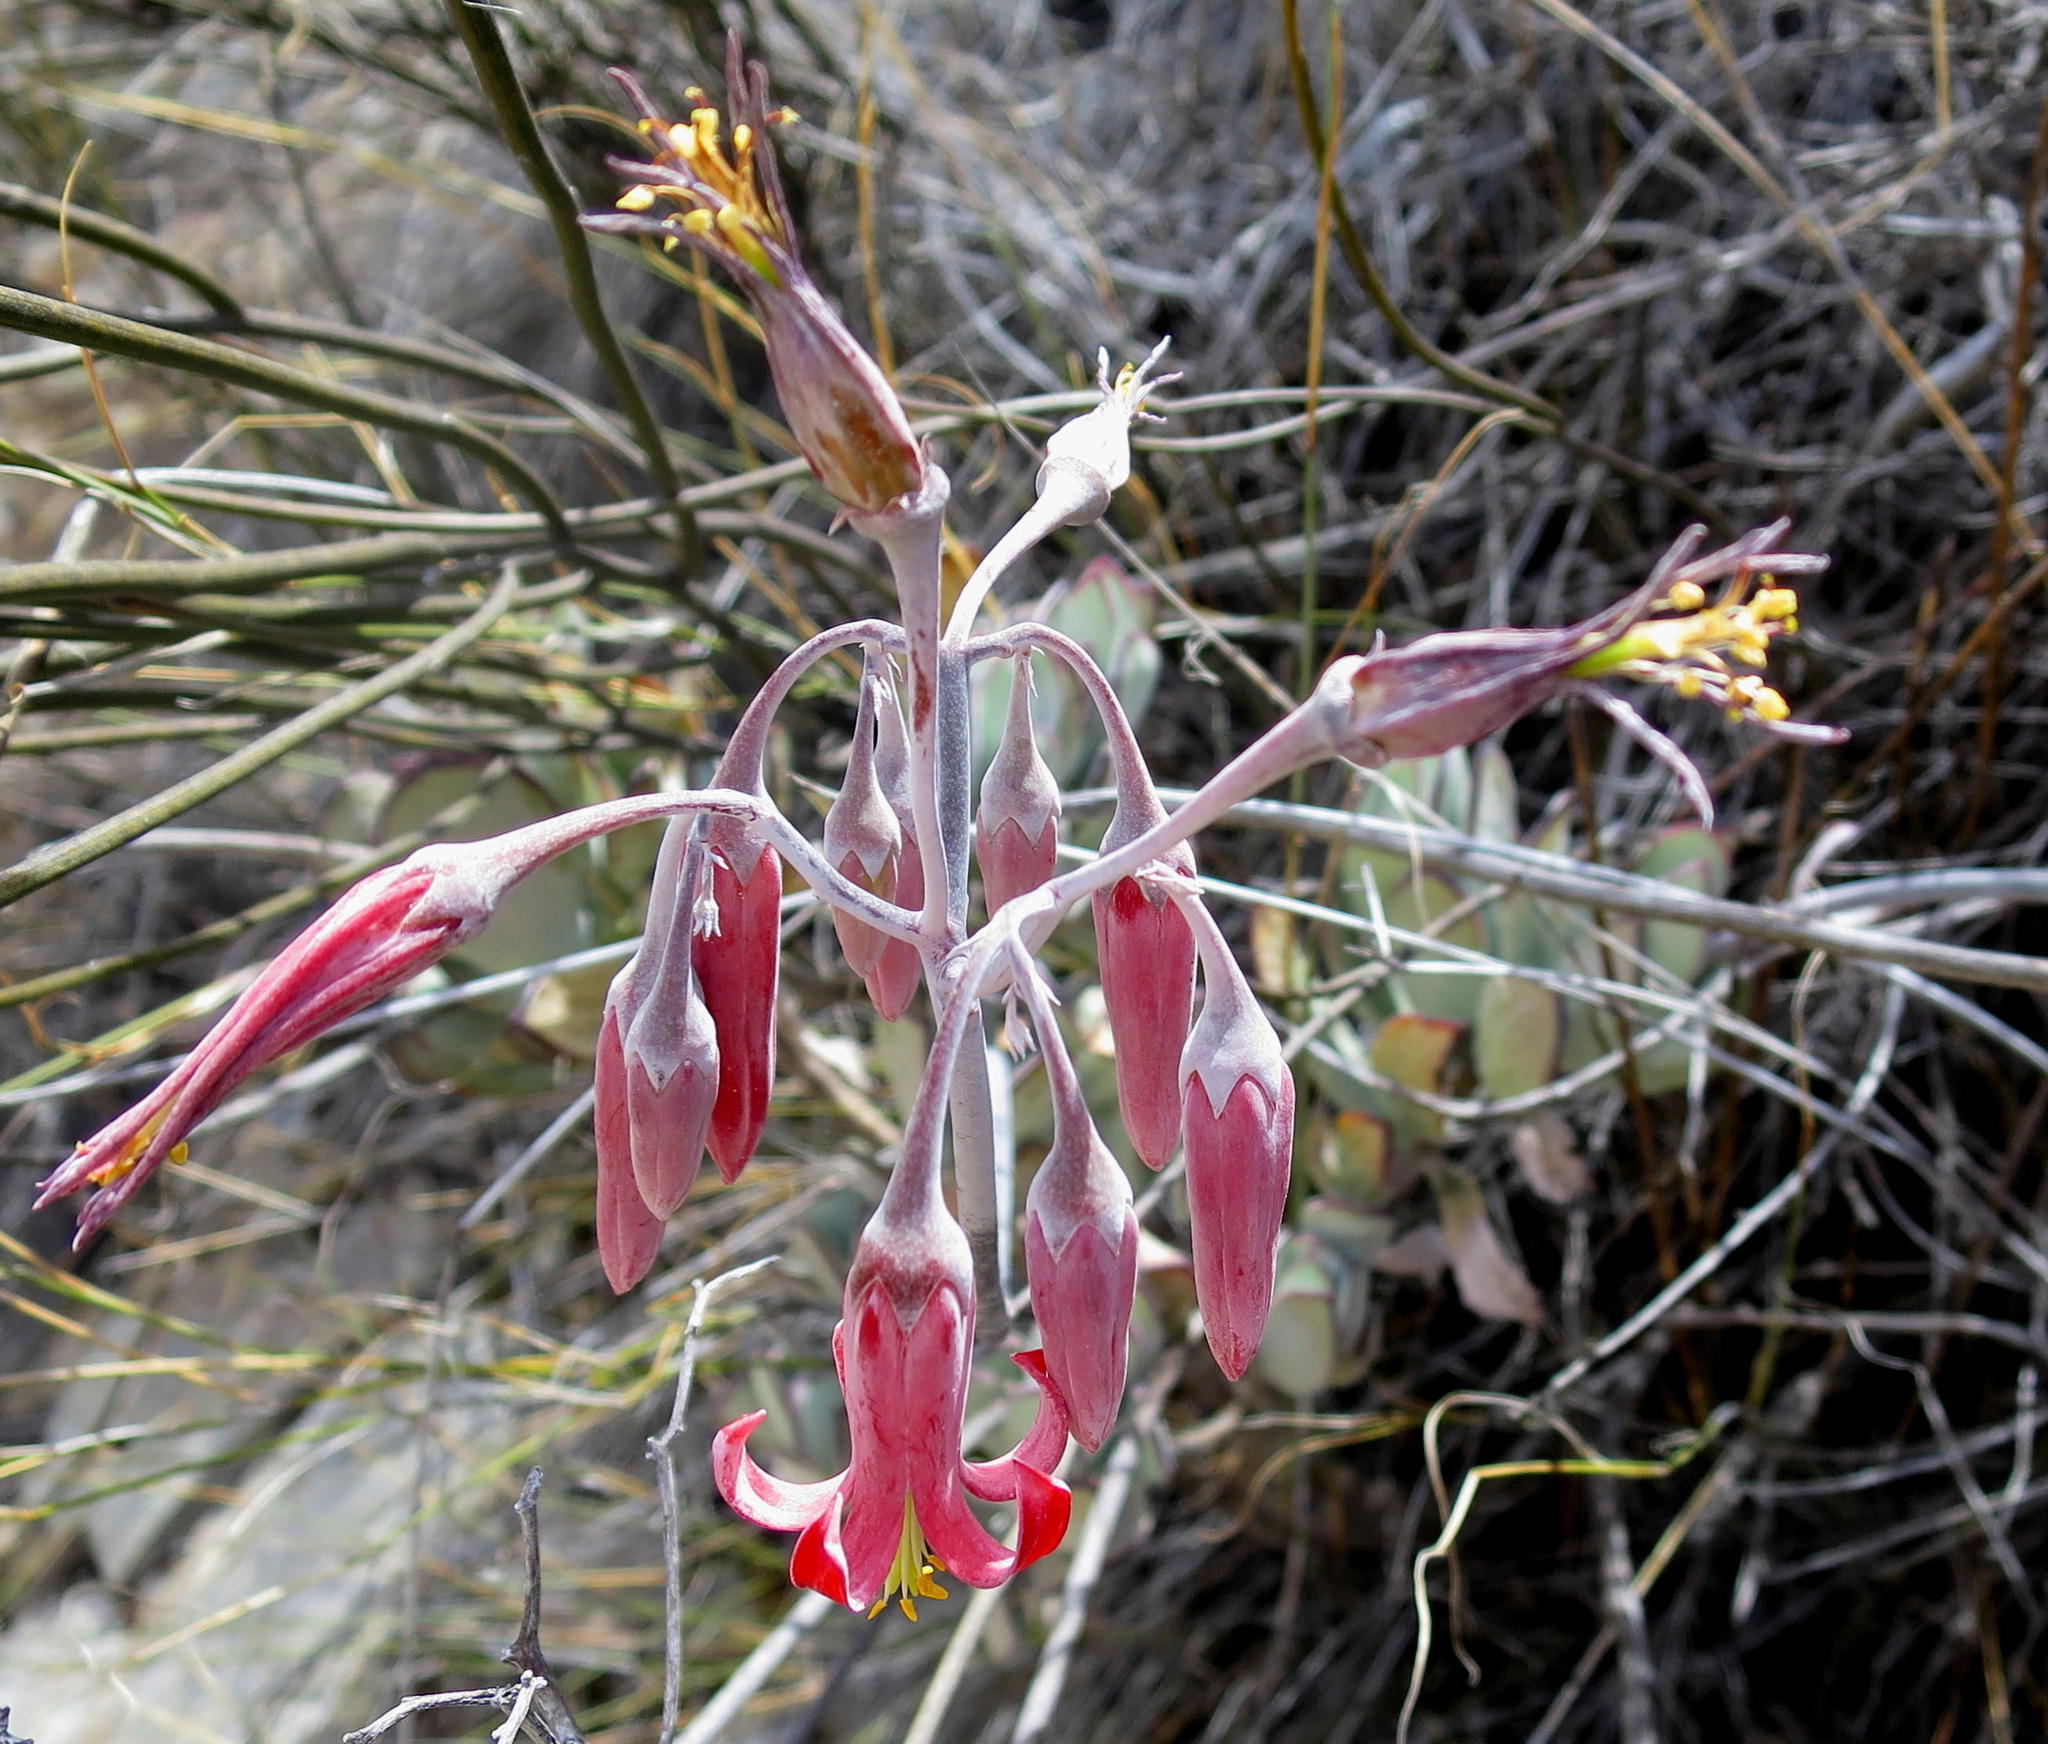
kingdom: Plantae
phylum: Tracheophyta
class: Magnoliopsida
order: Saxifragales
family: Crassulaceae
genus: Cotyledon
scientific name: Cotyledon orbiculata
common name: Pig's ear
